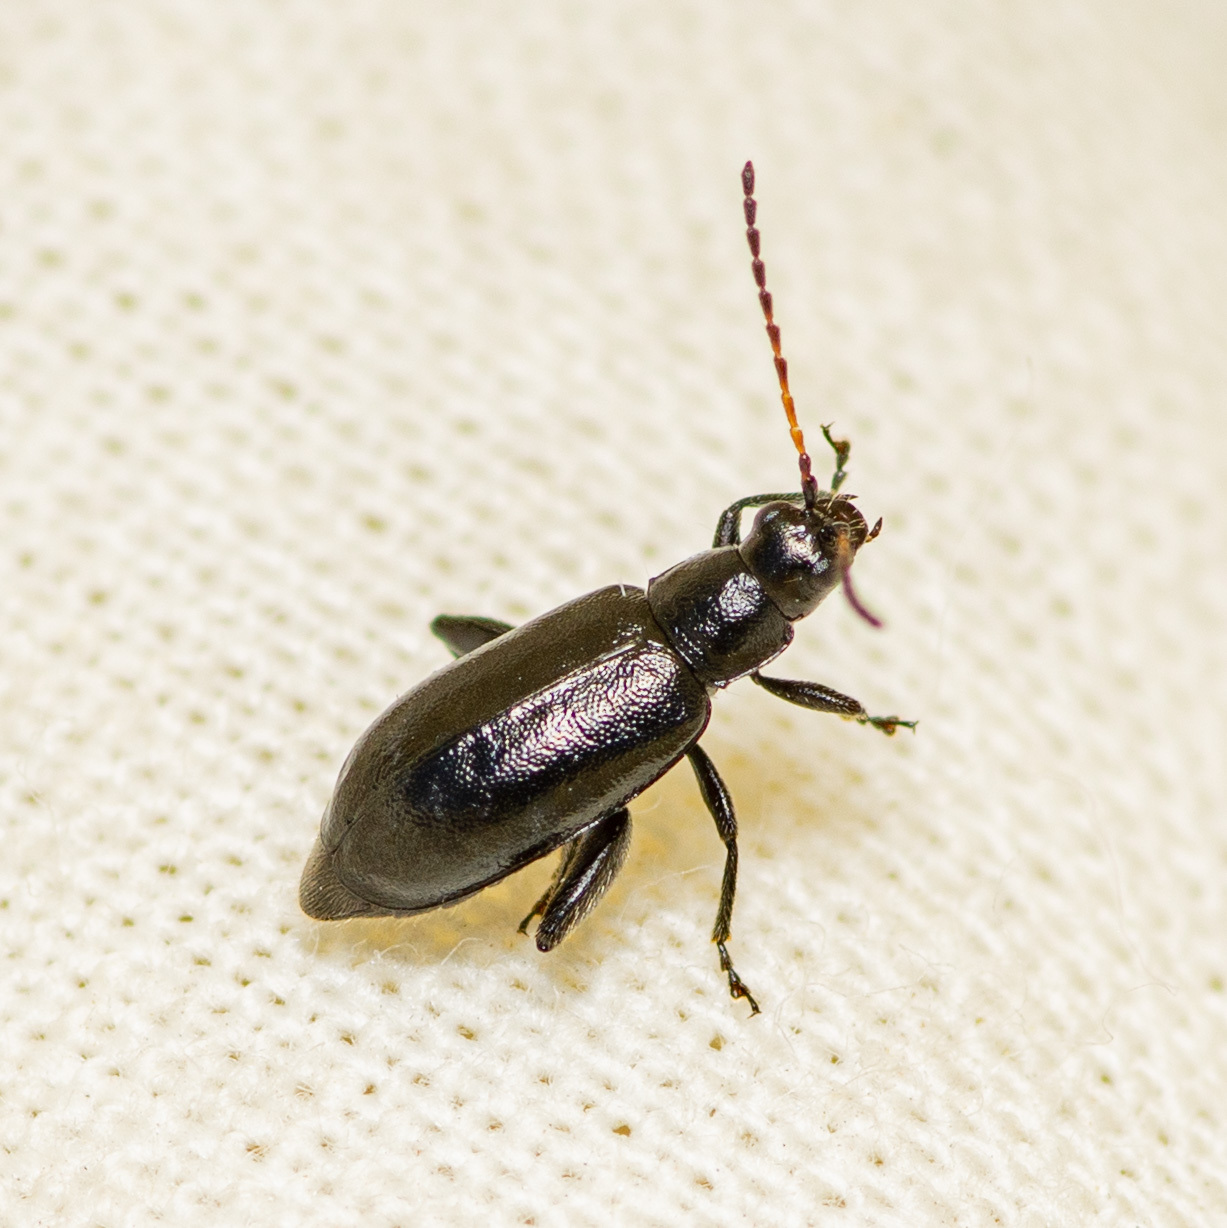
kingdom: Animalia
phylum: Arthropoda
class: Insecta
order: Coleoptera
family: Chrysomelidae
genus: Systena
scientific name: Systena hudsonias
